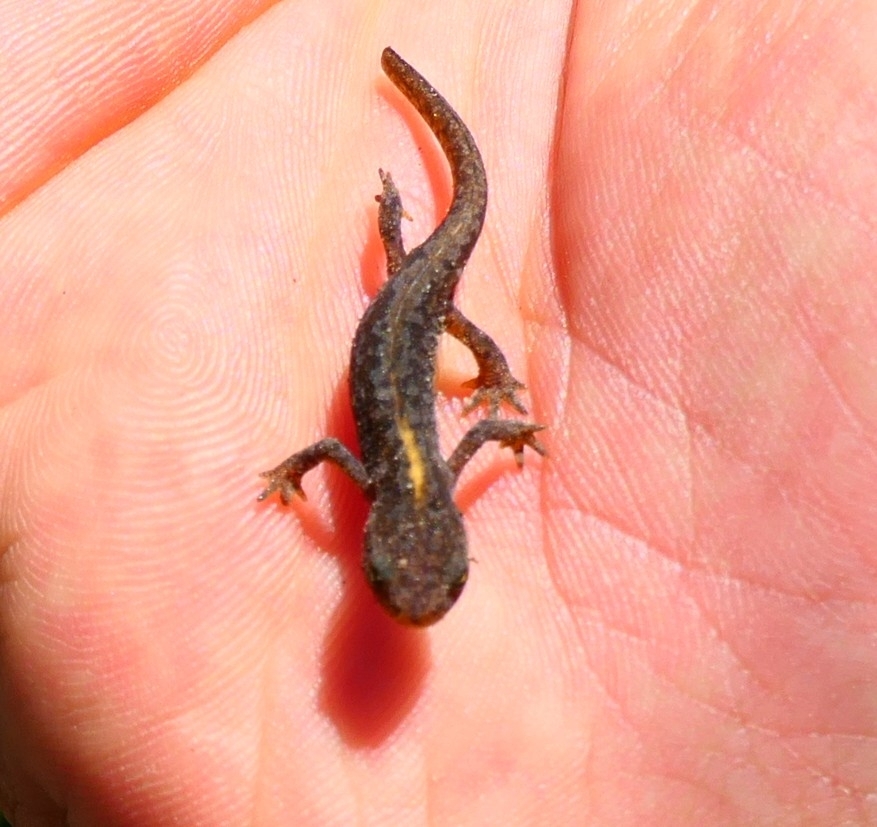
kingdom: Animalia
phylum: Chordata
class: Amphibia
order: Caudata
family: Salamandridae
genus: Ichthyosaura
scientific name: Ichthyosaura alpestris
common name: Alpine newt
